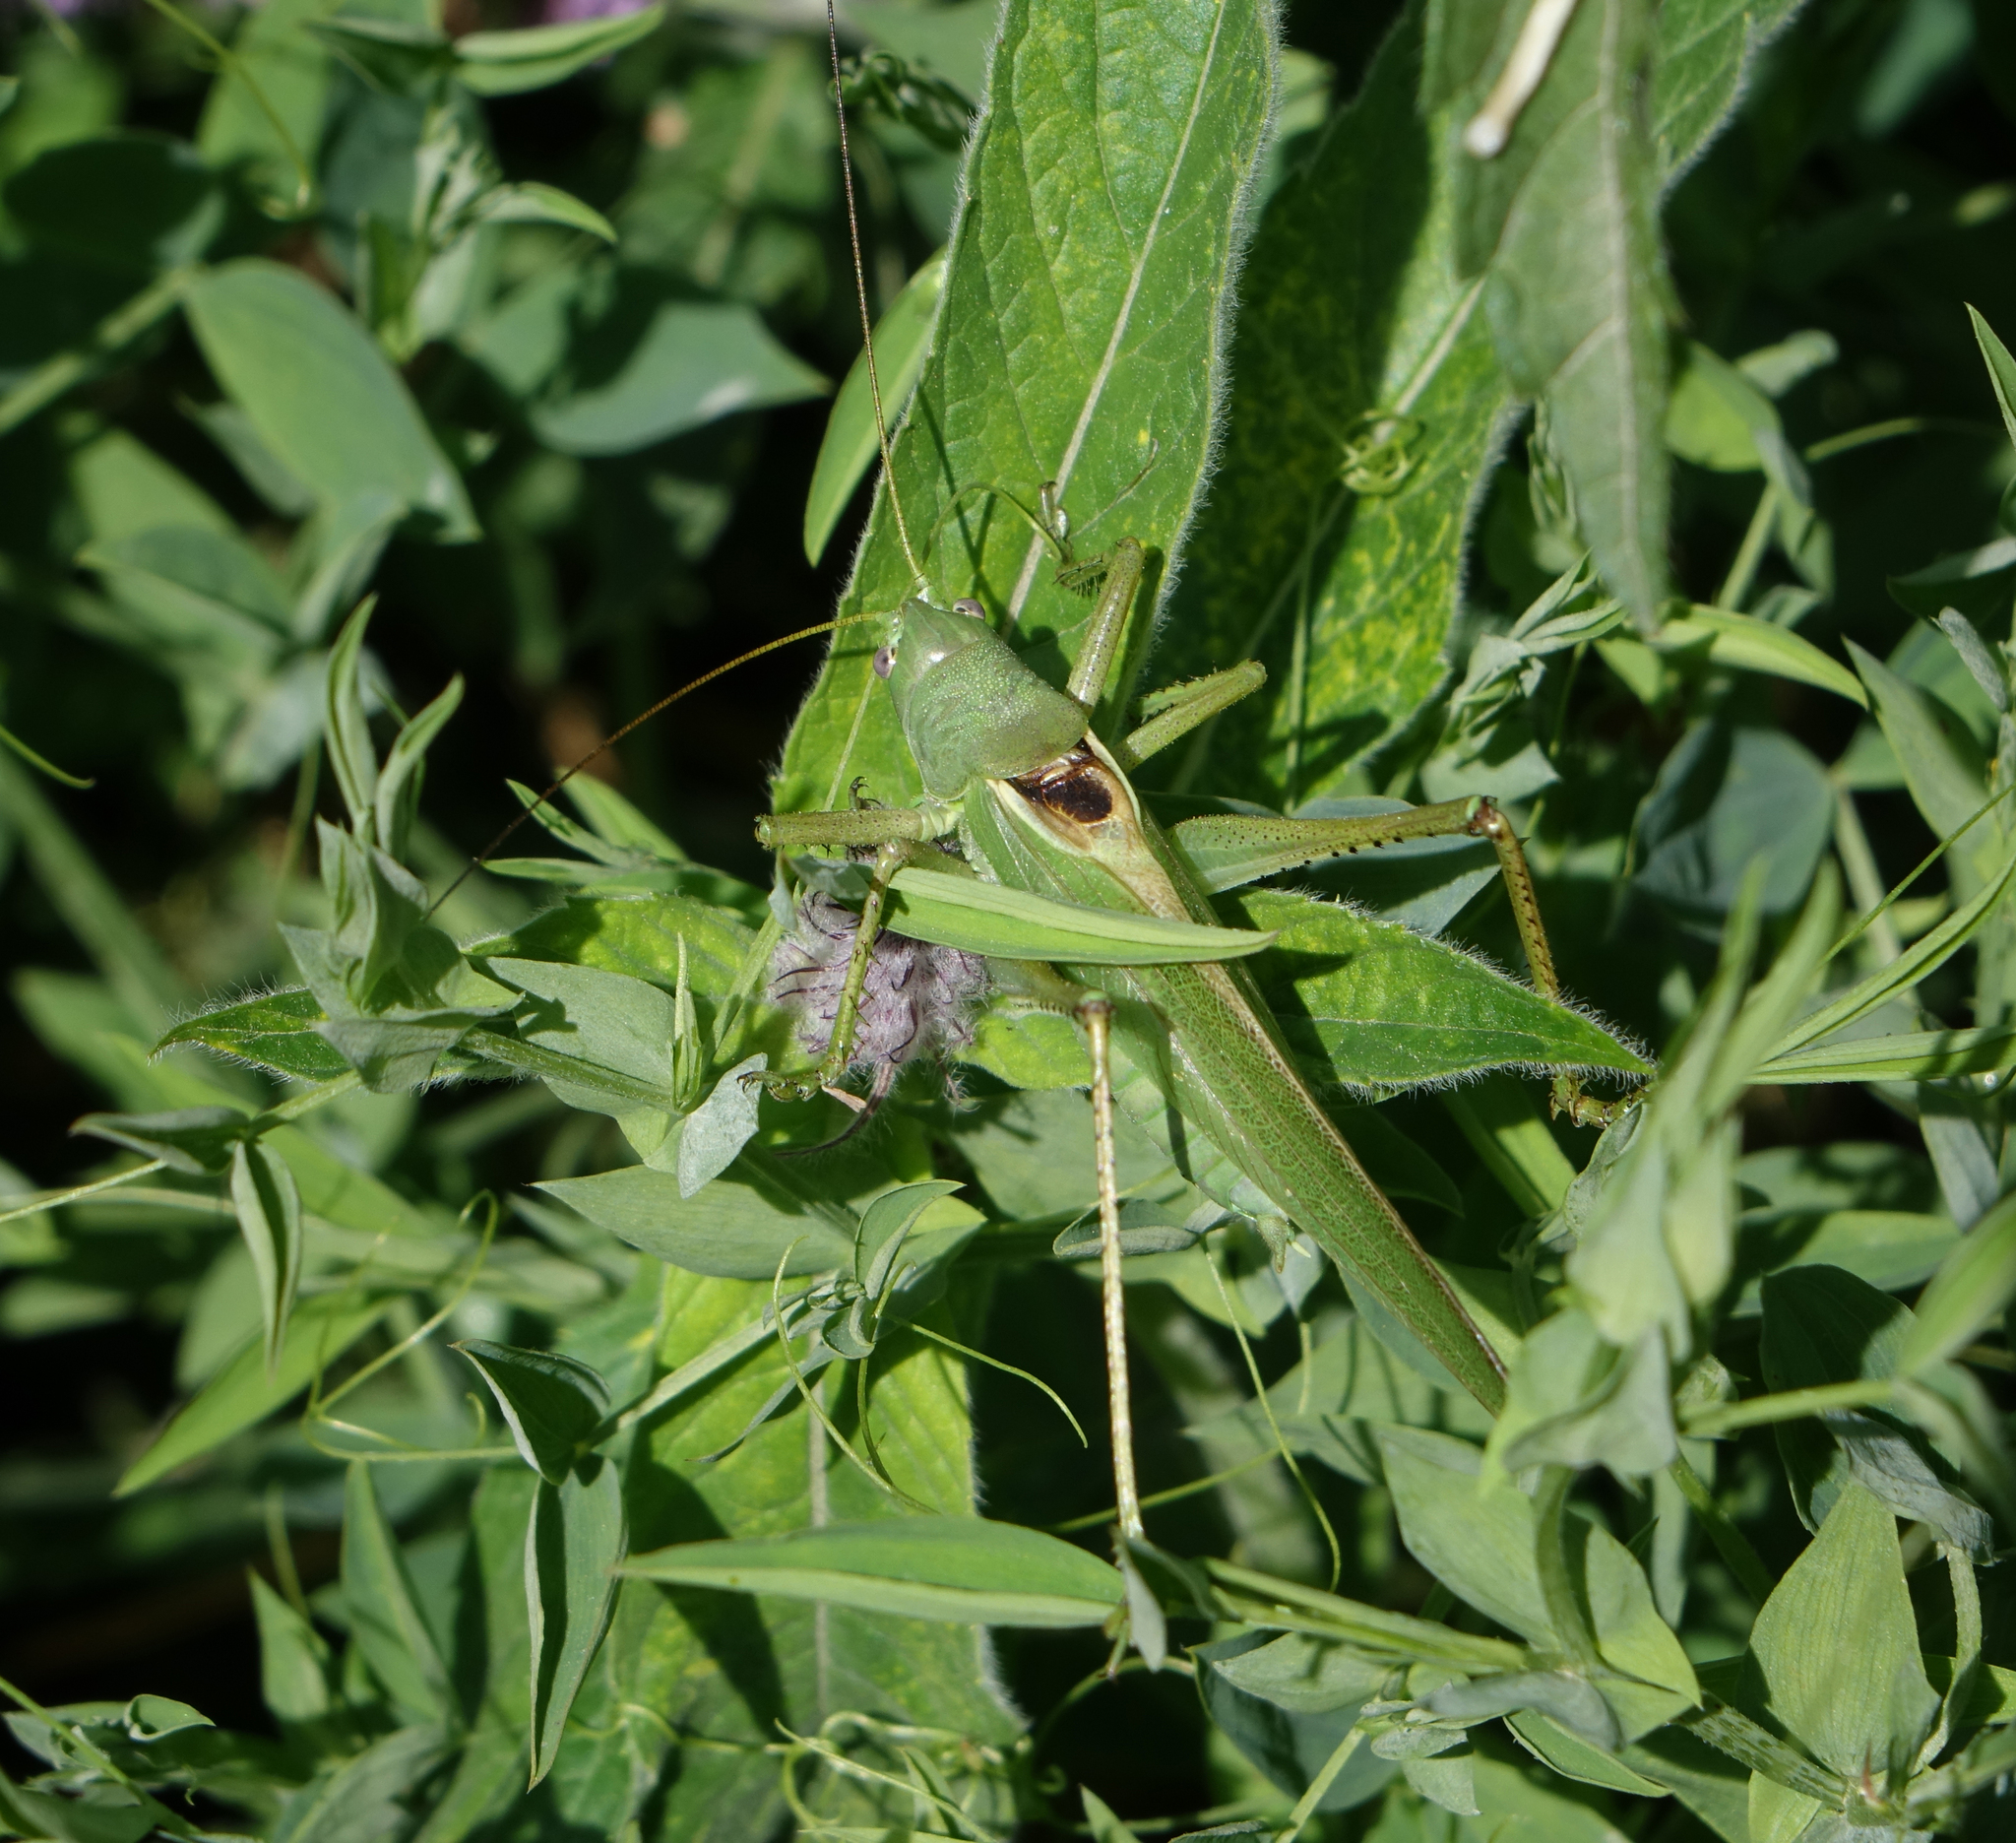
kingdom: Animalia
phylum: Arthropoda
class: Insecta
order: Orthoptera
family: Tettigoniidae
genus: Tettigonia
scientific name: Tettigonia caudata
